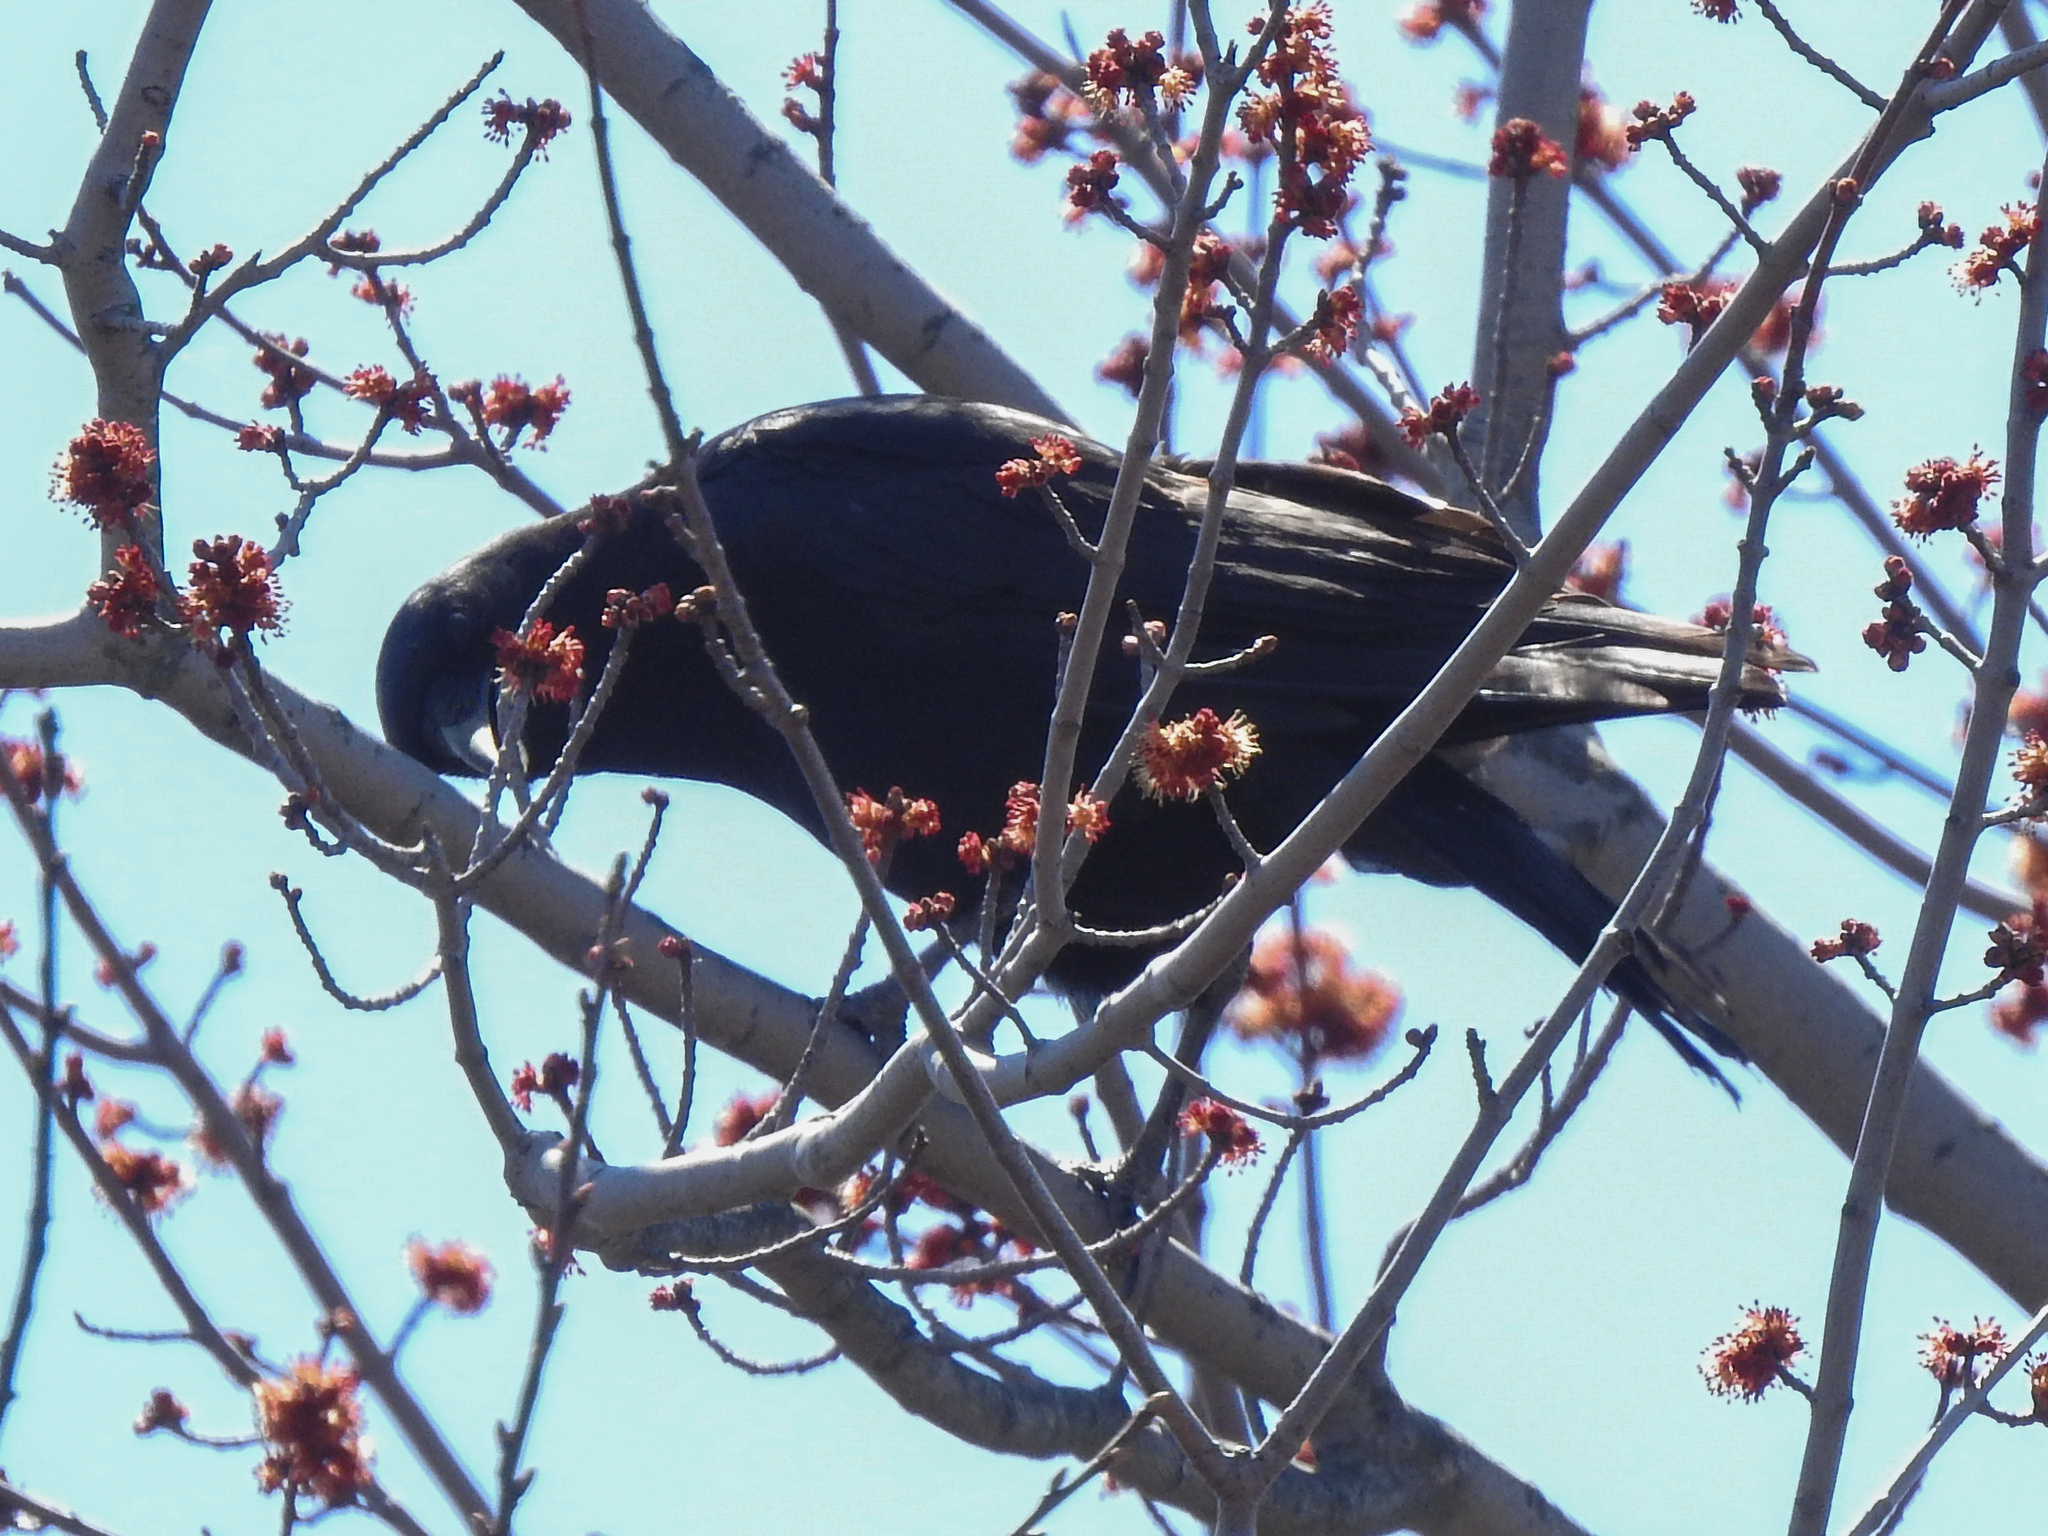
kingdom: Animalia
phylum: Chordata
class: Aves
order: Passeriformes
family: Corvidae
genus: Corvus
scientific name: Corvus brachyrhynchos
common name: American crow
